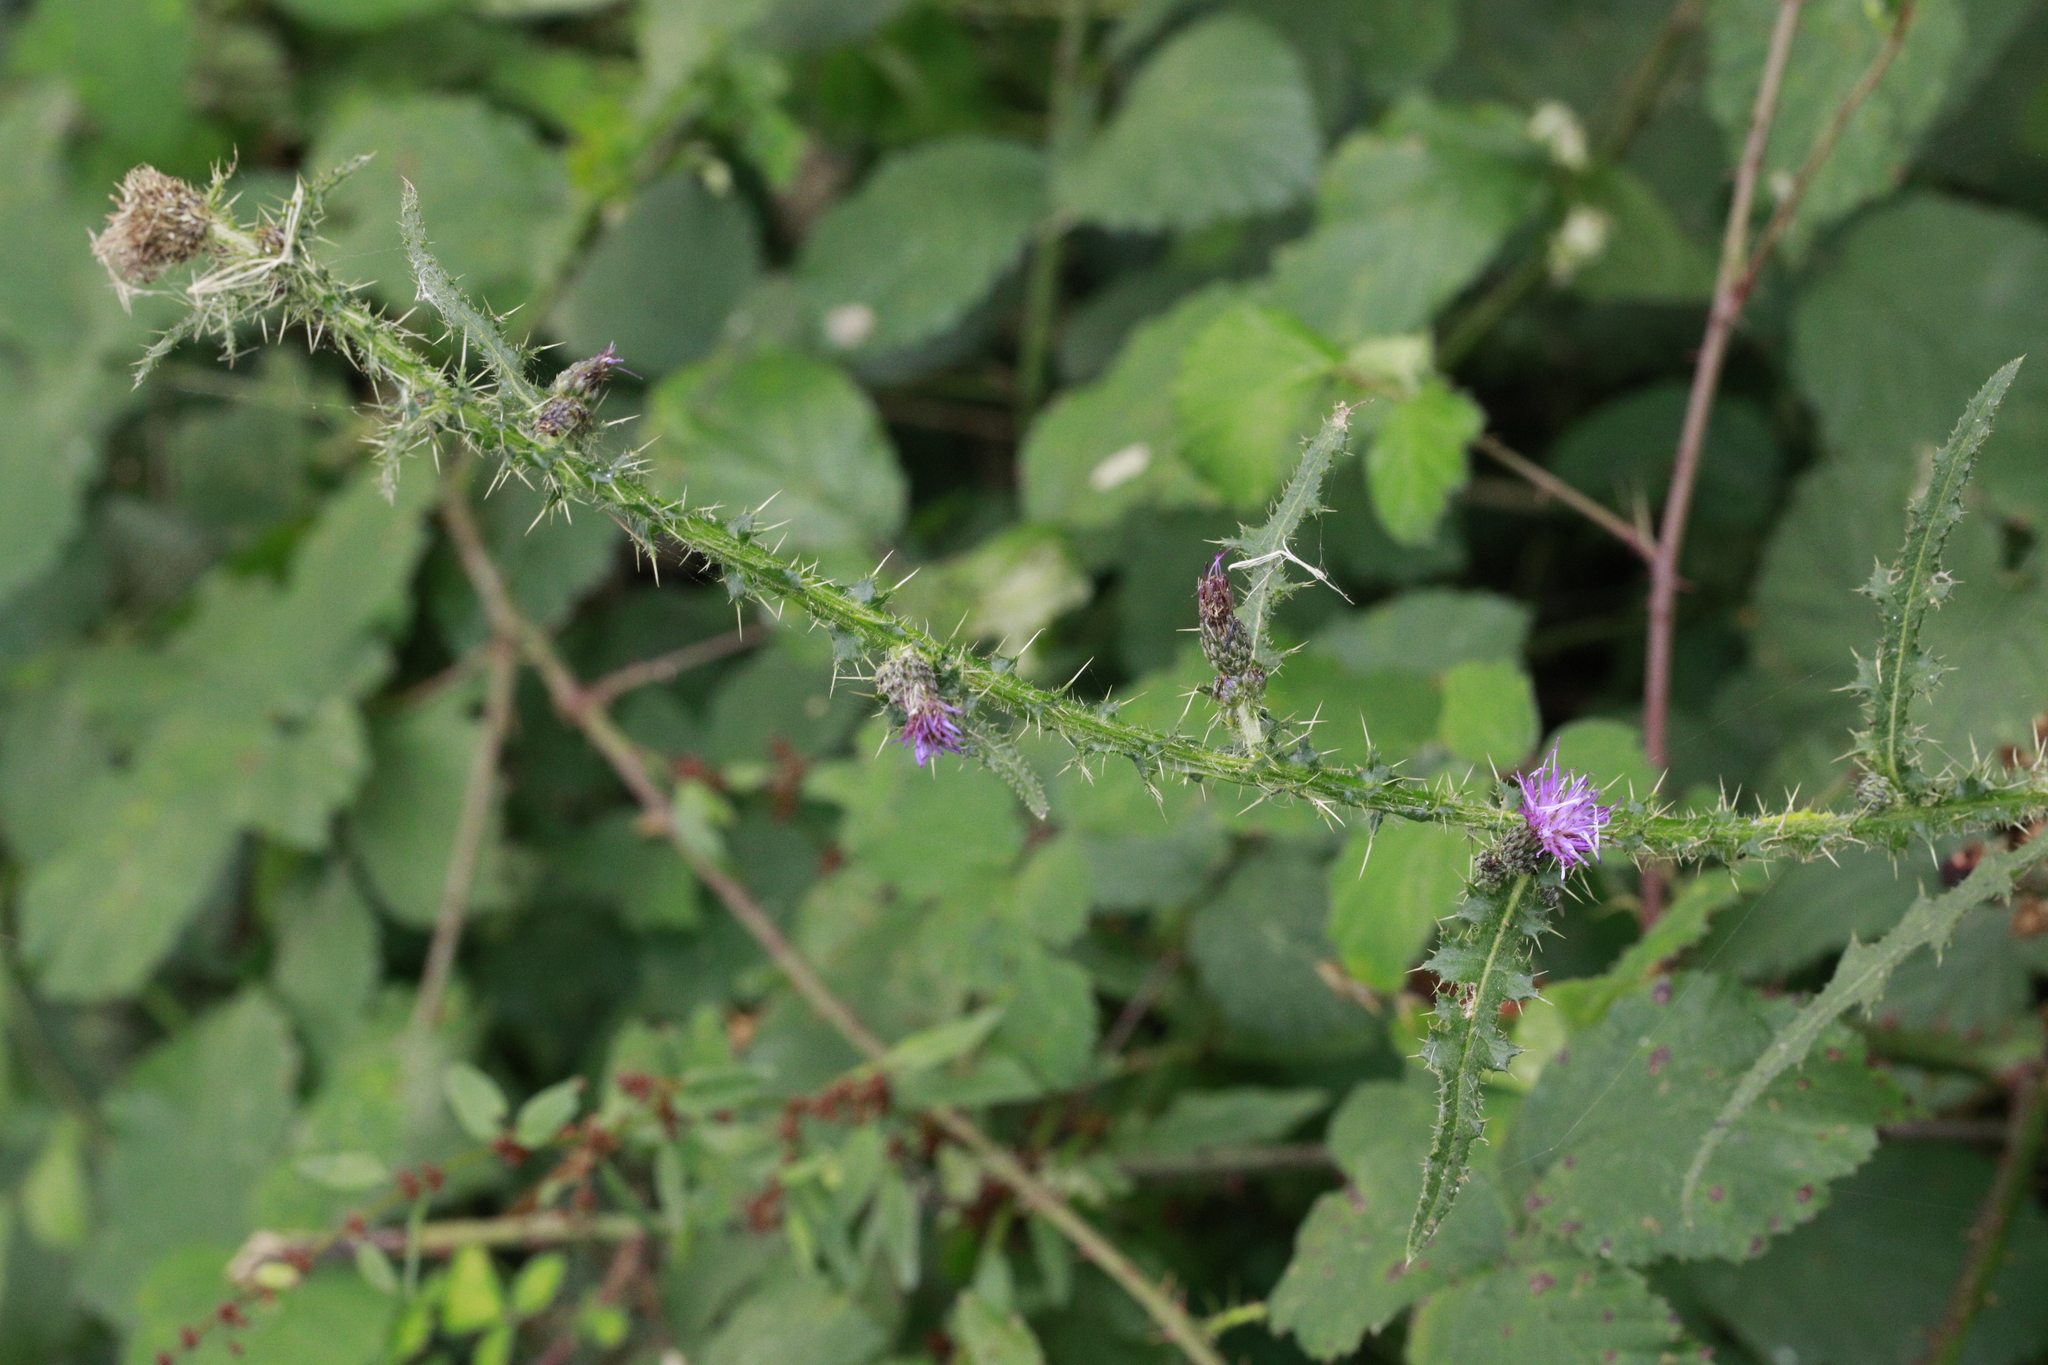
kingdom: Plantae
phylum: Tracheophyta
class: Magnoliopsida
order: Asterales
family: Asteraceae
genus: Cirsium
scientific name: Cirsium palustre
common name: Marsh thistle
